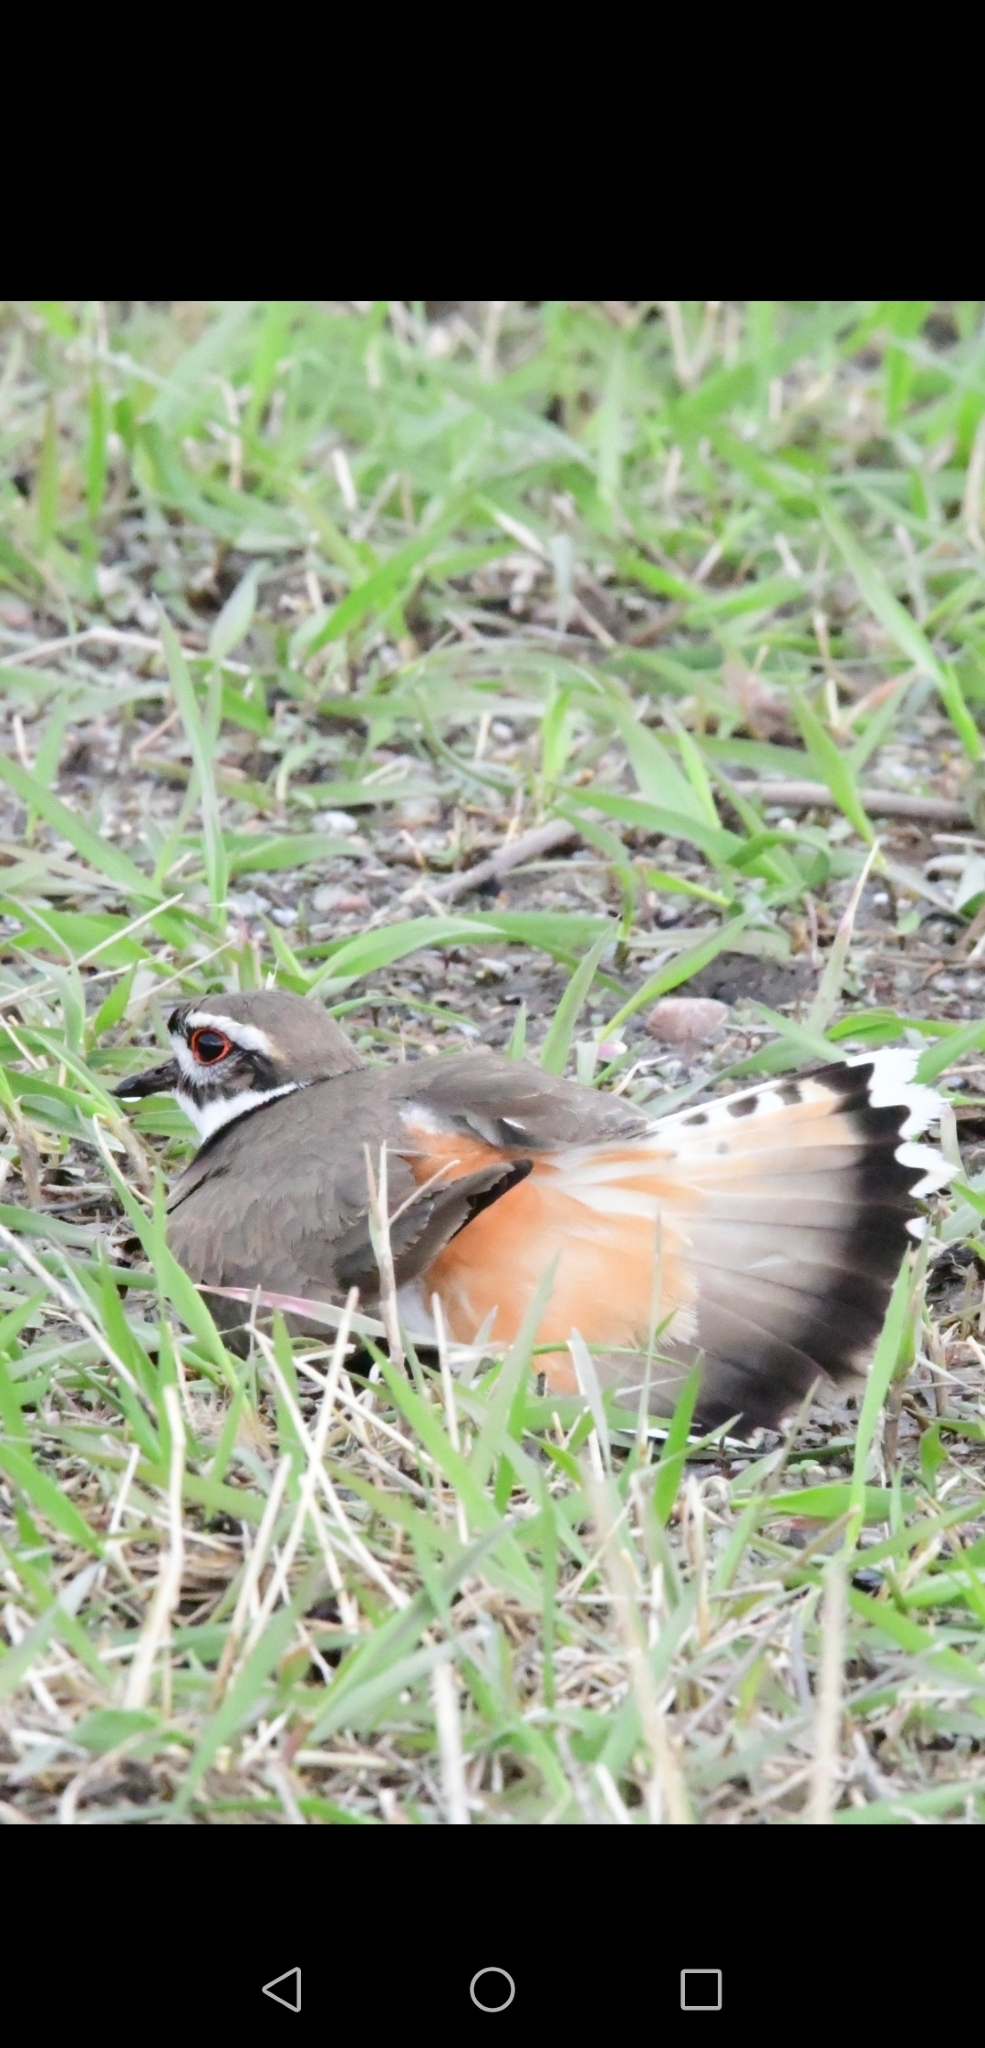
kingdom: Animalia
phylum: Chordata
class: Aves
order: Charadriiformes
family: Charadriidae
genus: Charadrius
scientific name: Charadrius vociferus
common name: Killdeer
